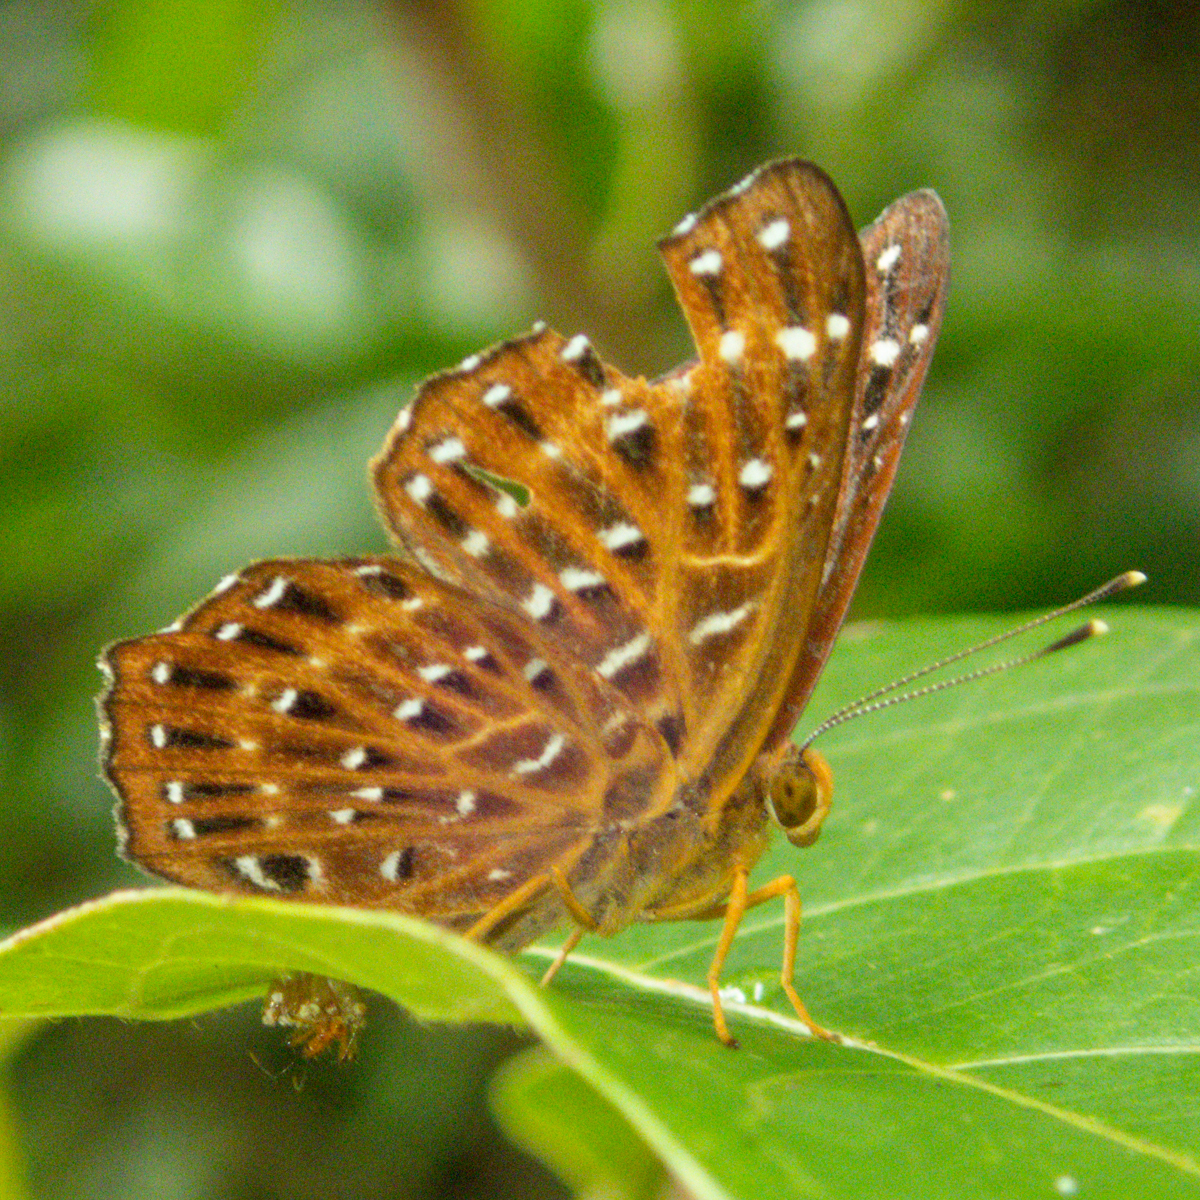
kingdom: Animalia
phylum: Arthropoda
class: Insecta
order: Lepidoptera
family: Riodinidae
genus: Zemeros
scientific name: Zemeros flegyas
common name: Punchinello
